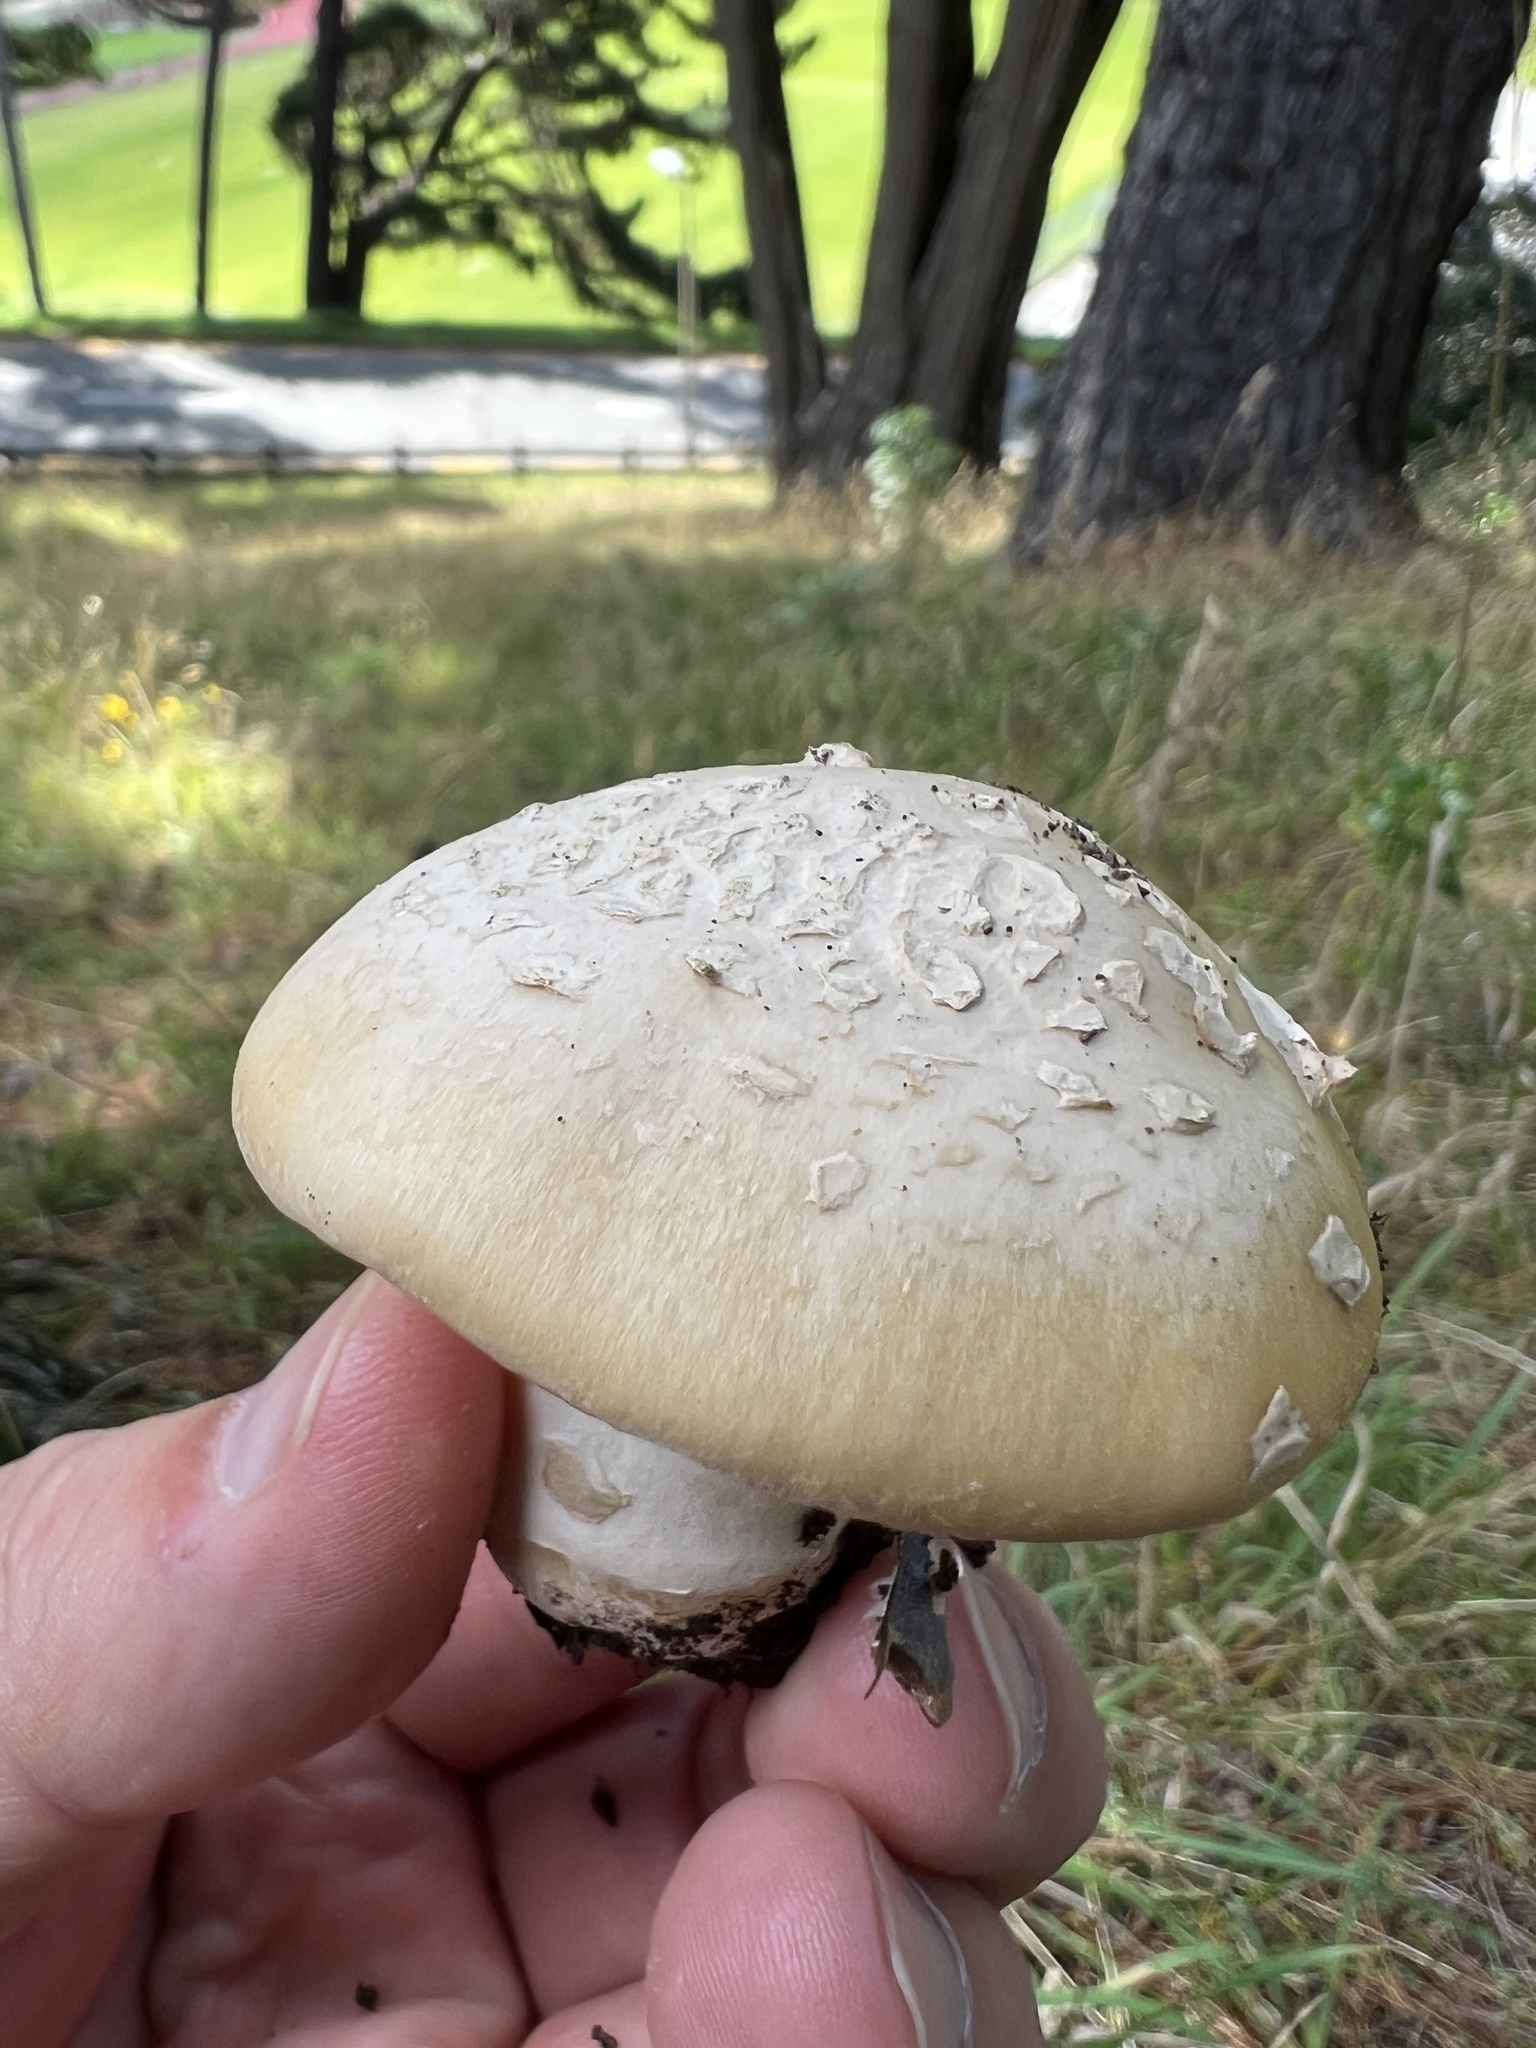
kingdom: Fungi
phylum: Basidiomycota
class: Agaricomycetes
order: Agaricales
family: Amanitaceae
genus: Amanita
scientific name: Amanita gemmata
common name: Jewelled amanita
